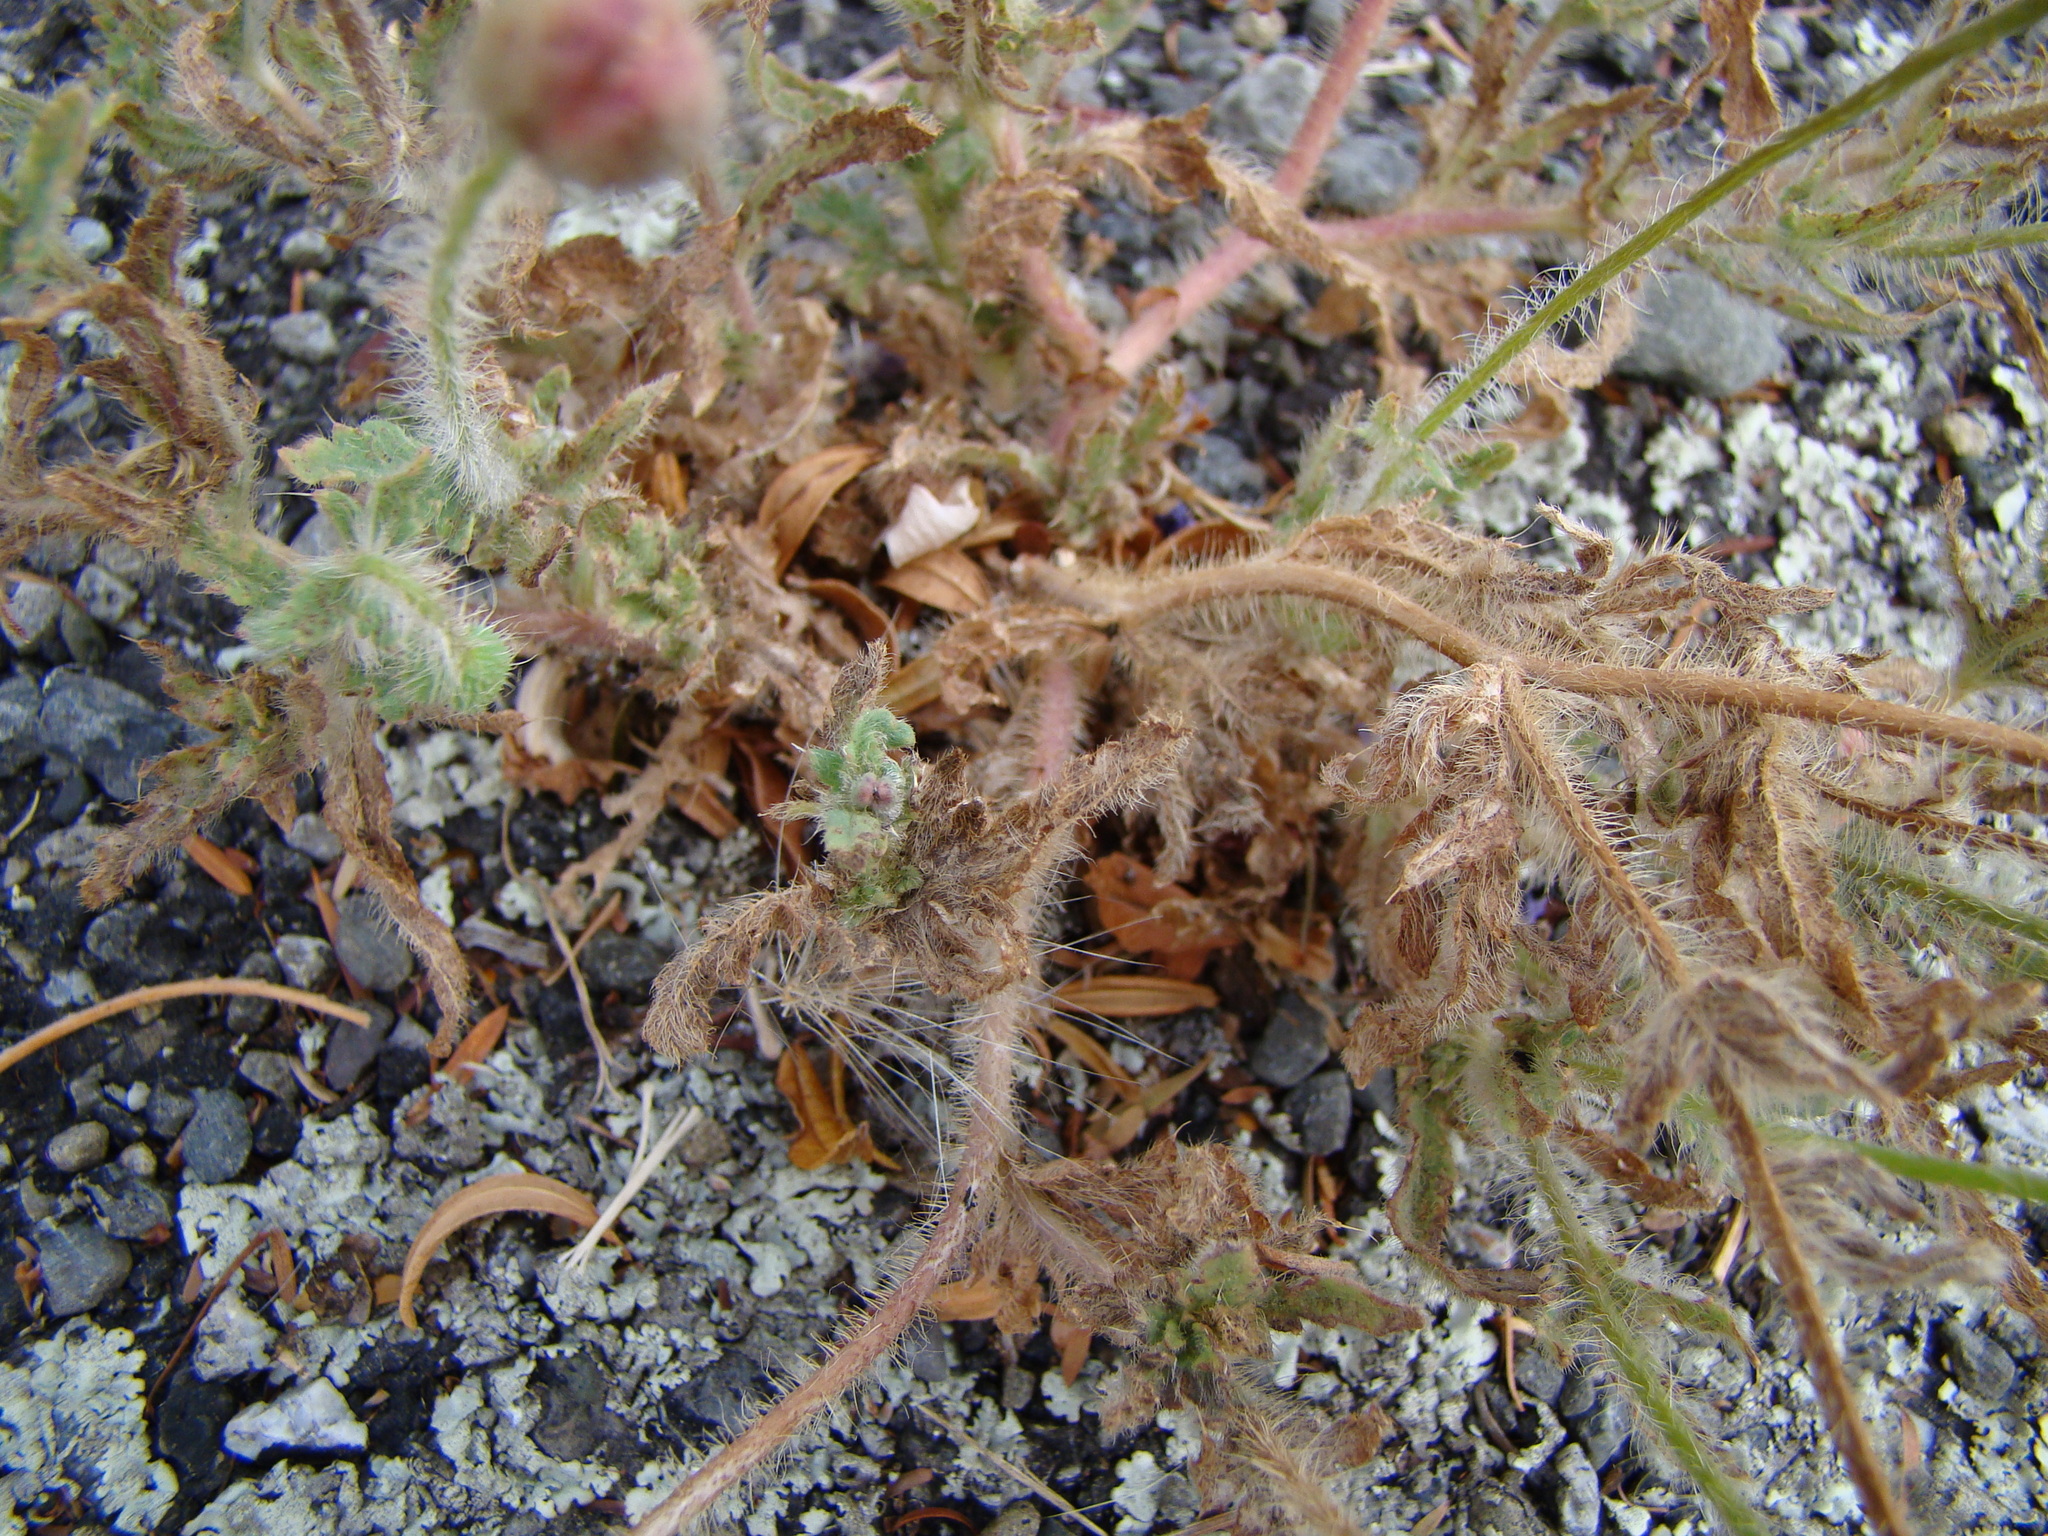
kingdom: Plantae
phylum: Tracheophyta
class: Magnoliopsida
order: Ranunculales
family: Papaveraceae
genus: Papaver
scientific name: Papaver rhoeas
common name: Corn poppy
